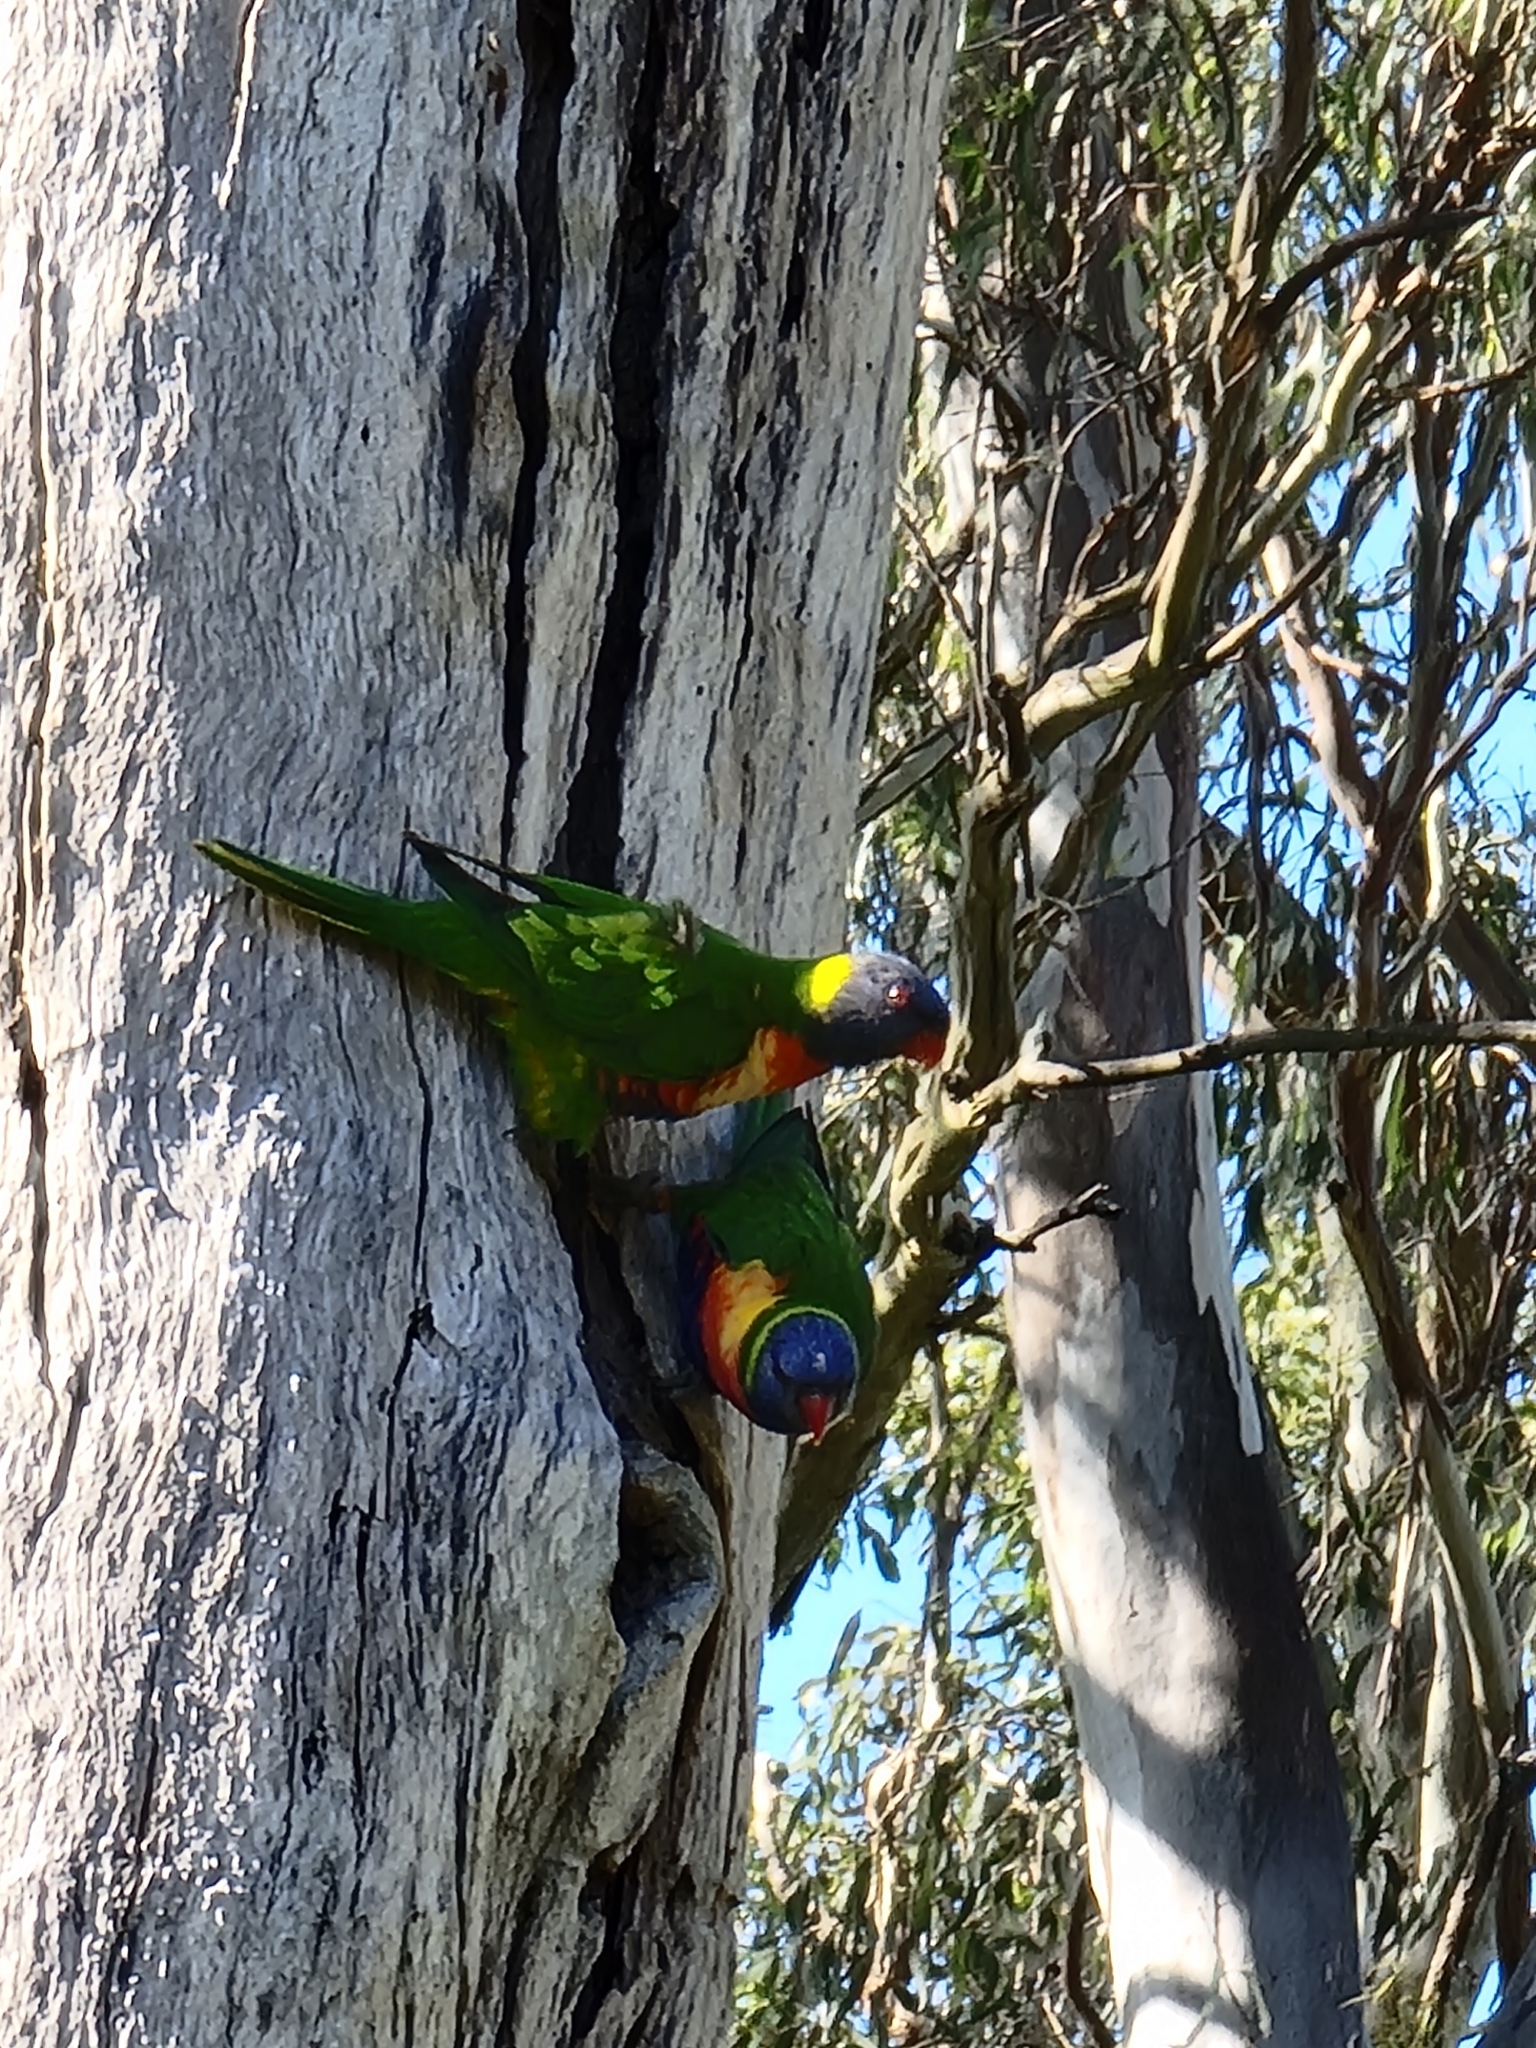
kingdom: Animalia
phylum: Chordata
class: Aves
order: Psittaciformes
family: Psittacidae
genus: Trichoglossus
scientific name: Trichoglossus haematodus
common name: Coconut lorikeet
